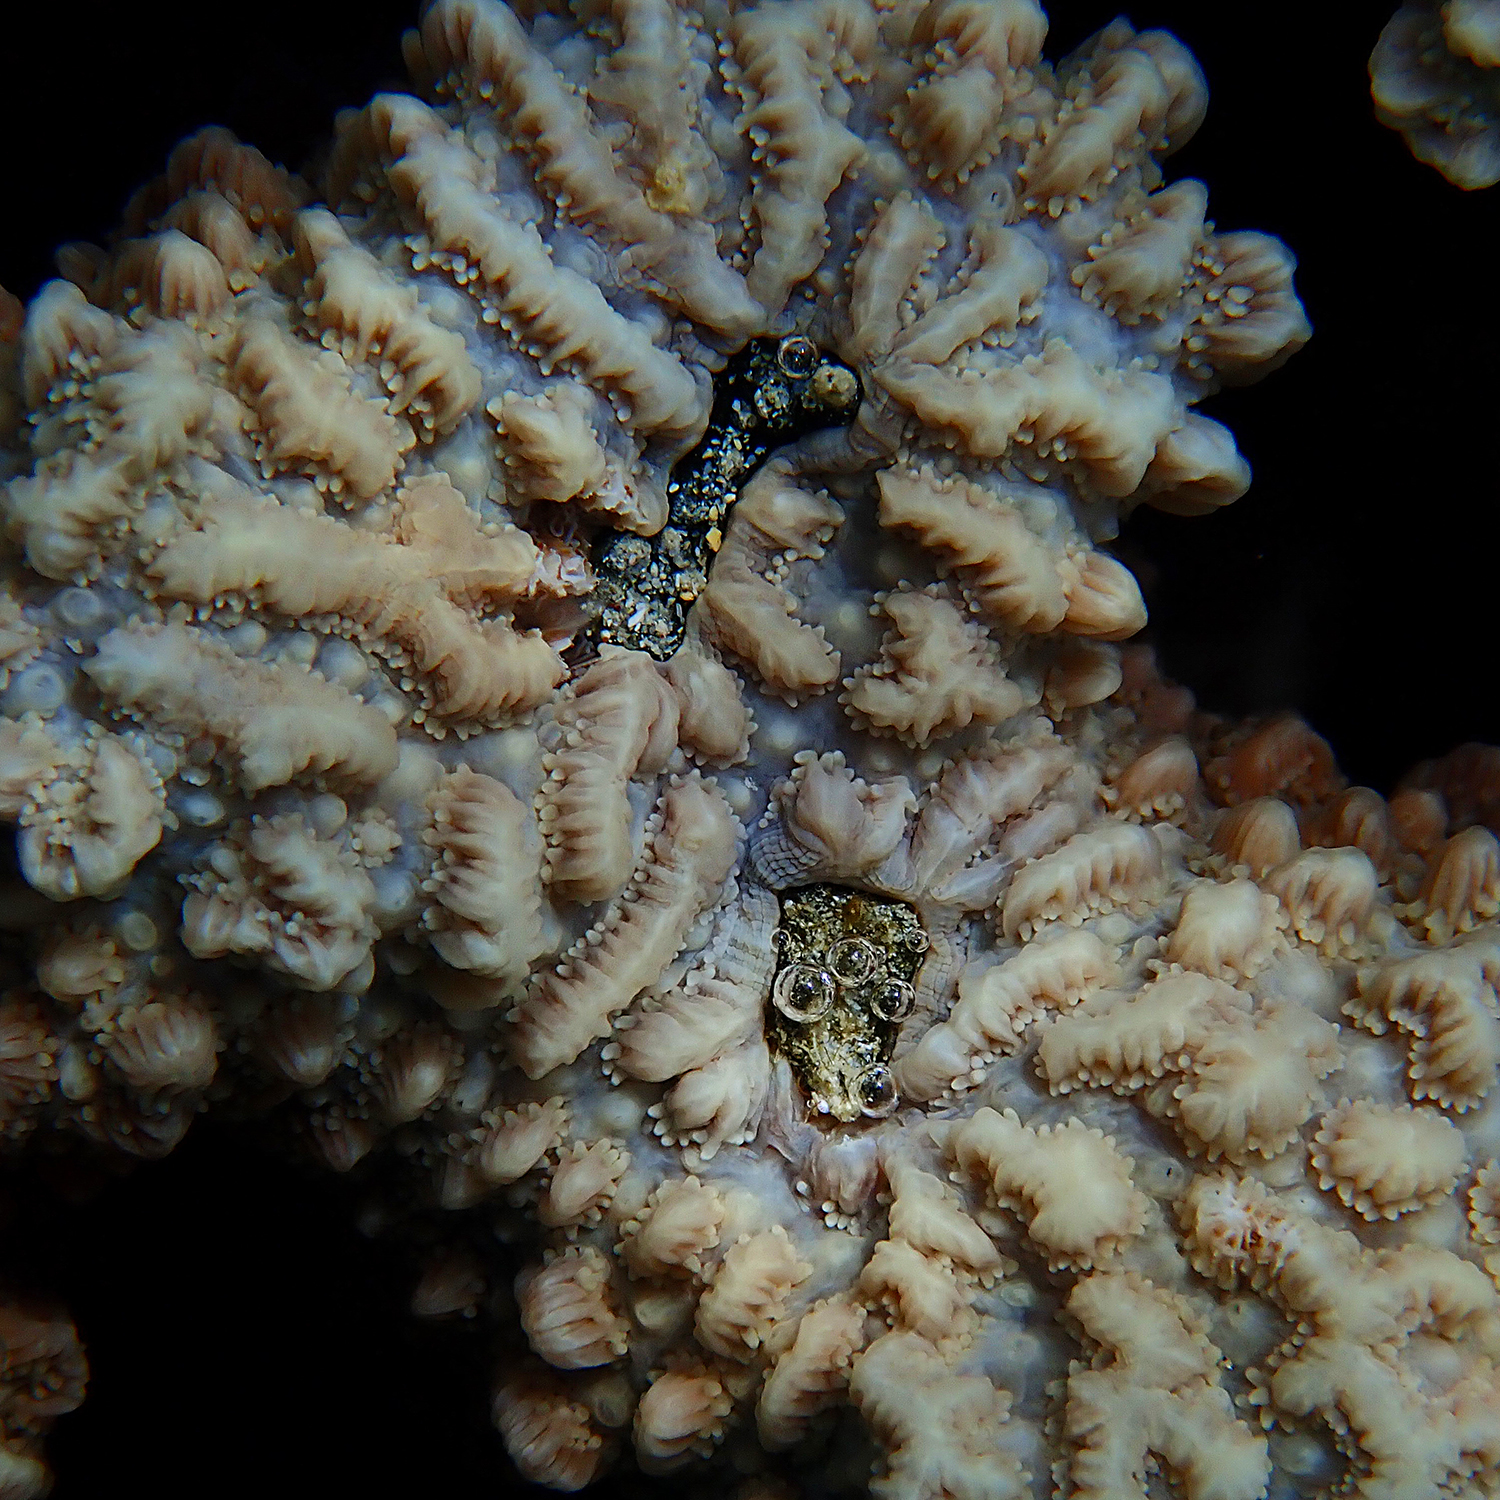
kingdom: Animalia
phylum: Cnidaria
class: Anthozoa
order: Scleractinia
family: Merulinidae
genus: Hydnophora
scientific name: Hydnophora pilosa
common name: Spine coral
